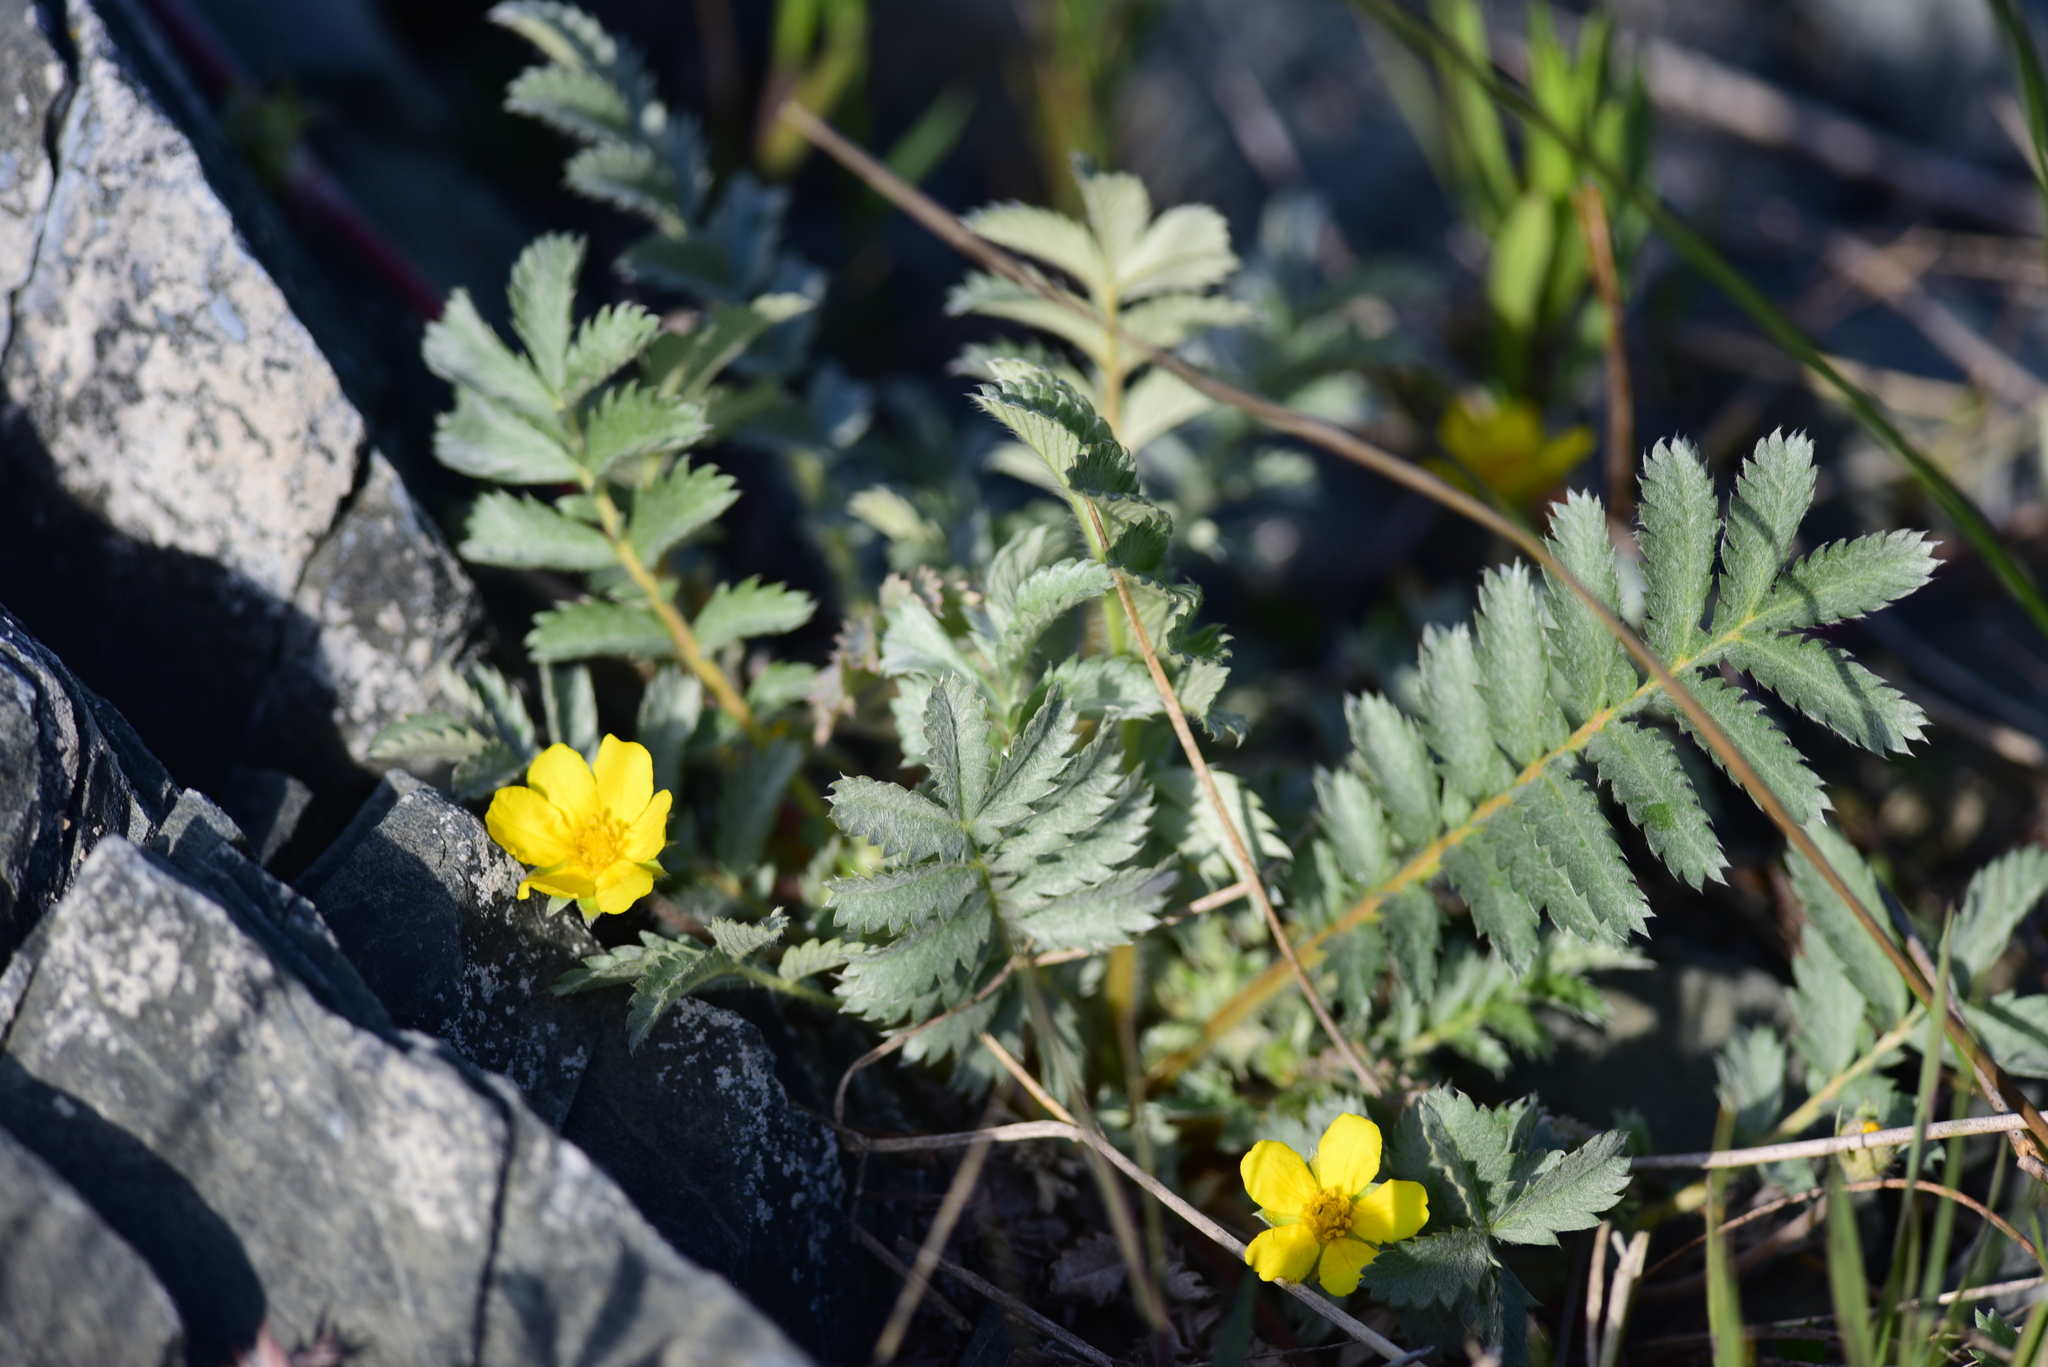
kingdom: Plantae
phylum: Tracheophyta
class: Magnoliopsida
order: Rosales
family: Rosaceae
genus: Argentina
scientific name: Argentina anserina
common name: Common silverweed
